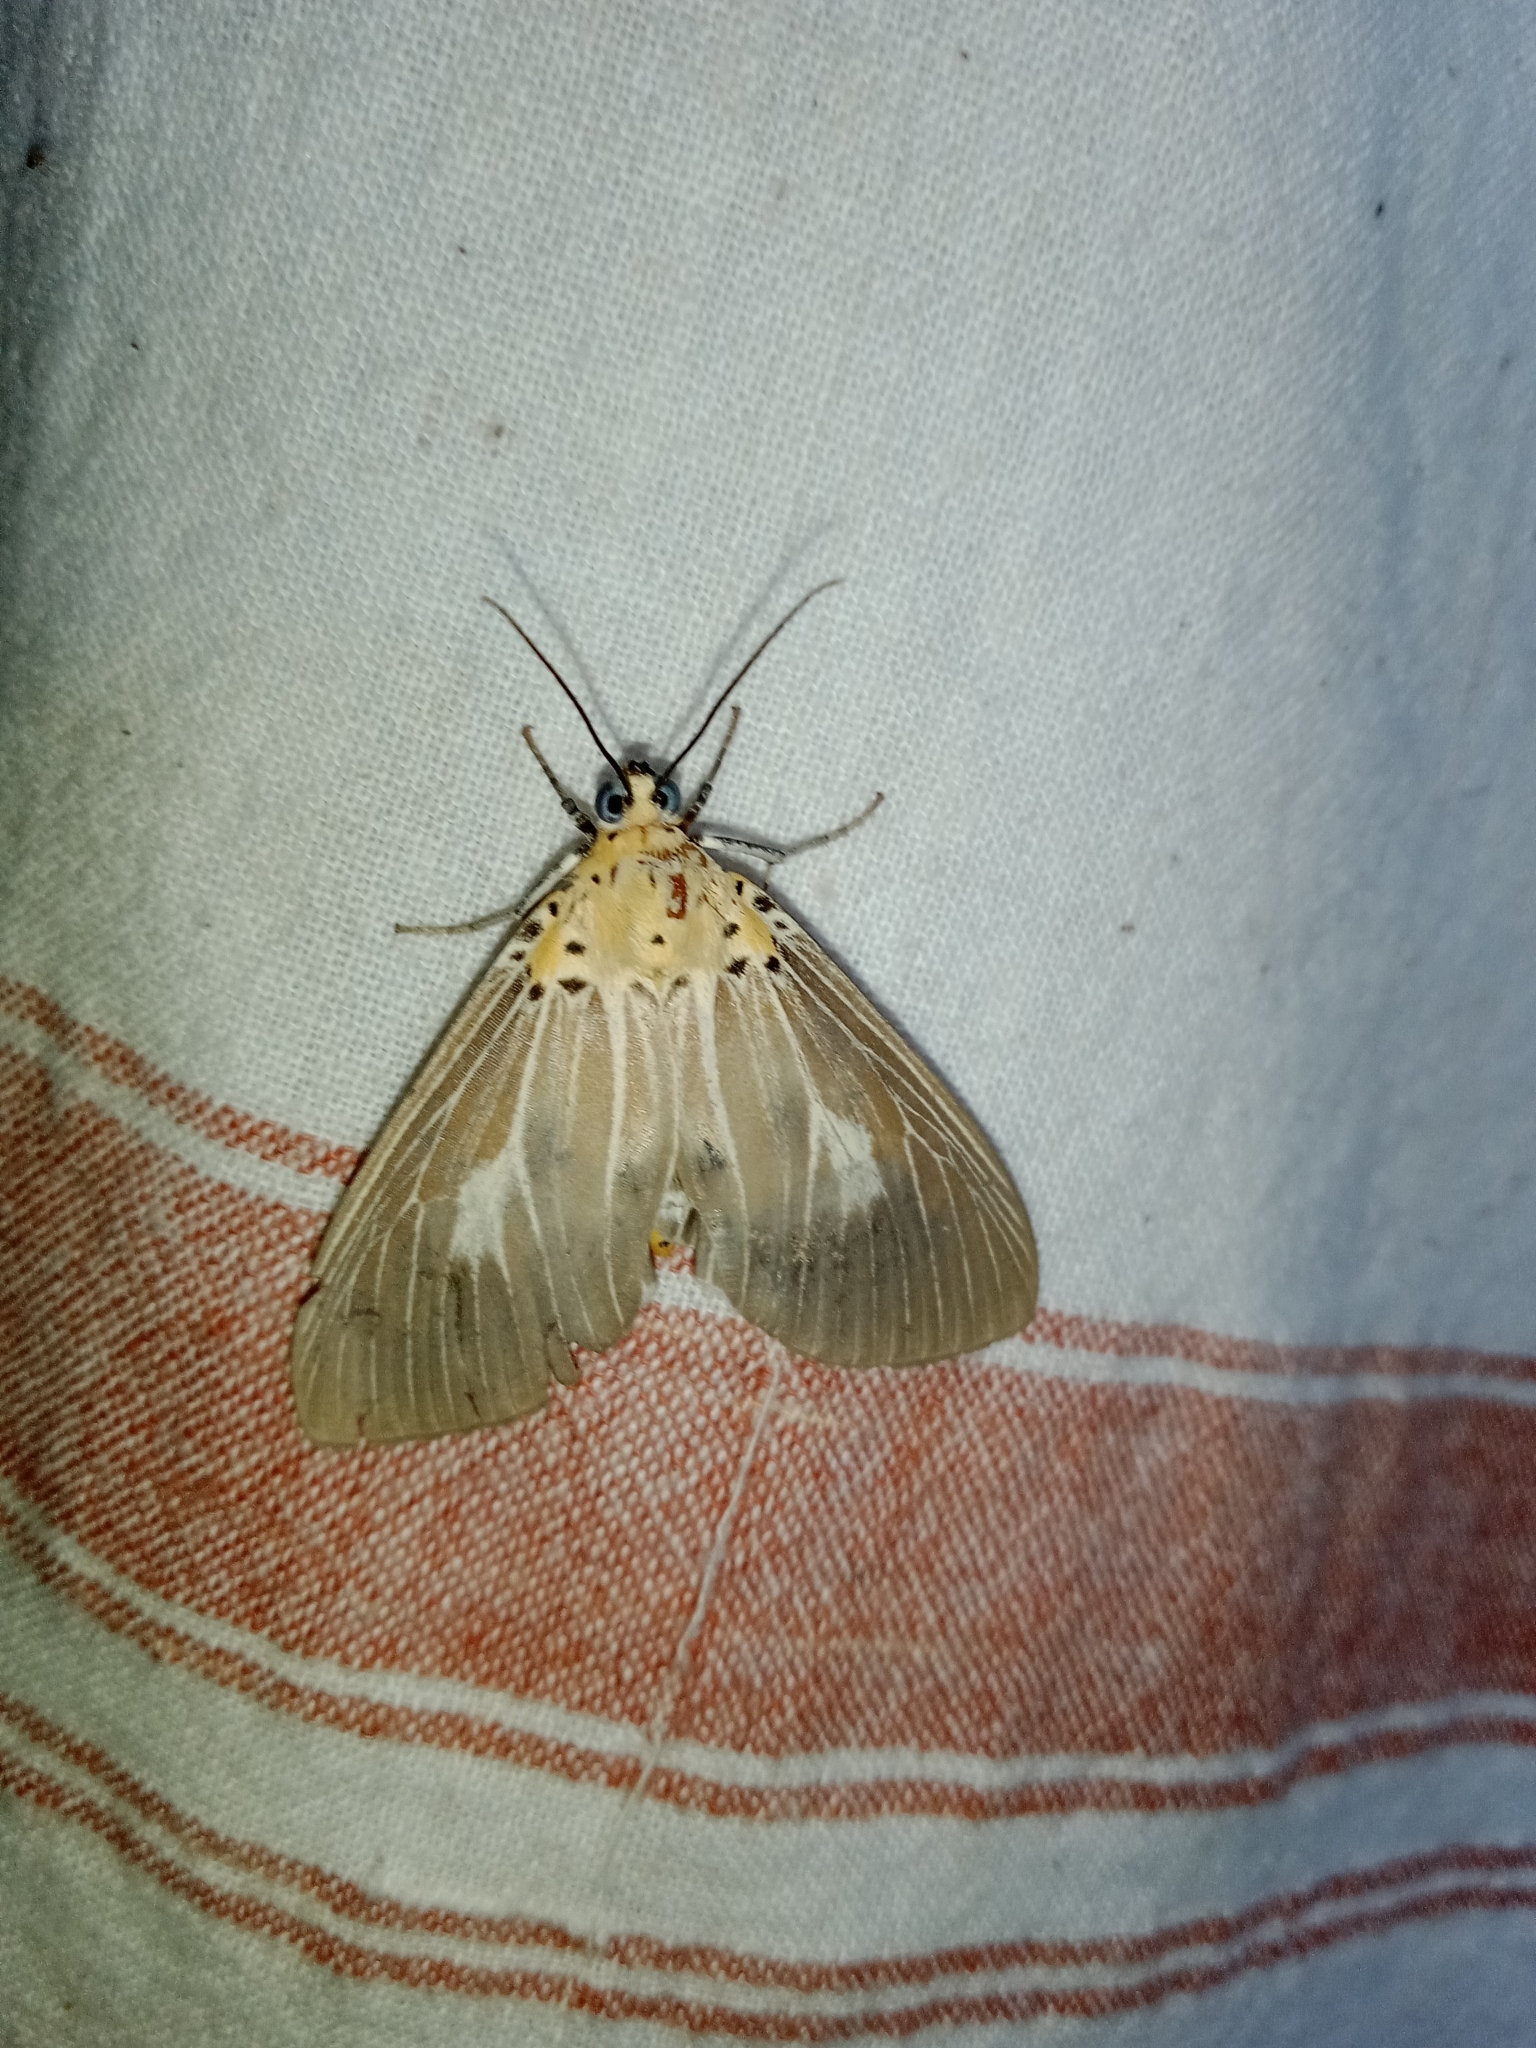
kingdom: Animalia
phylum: Arthropoda
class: Insecta
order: Lepidoptera
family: Erebidae
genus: Asota
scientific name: Asota caricae
